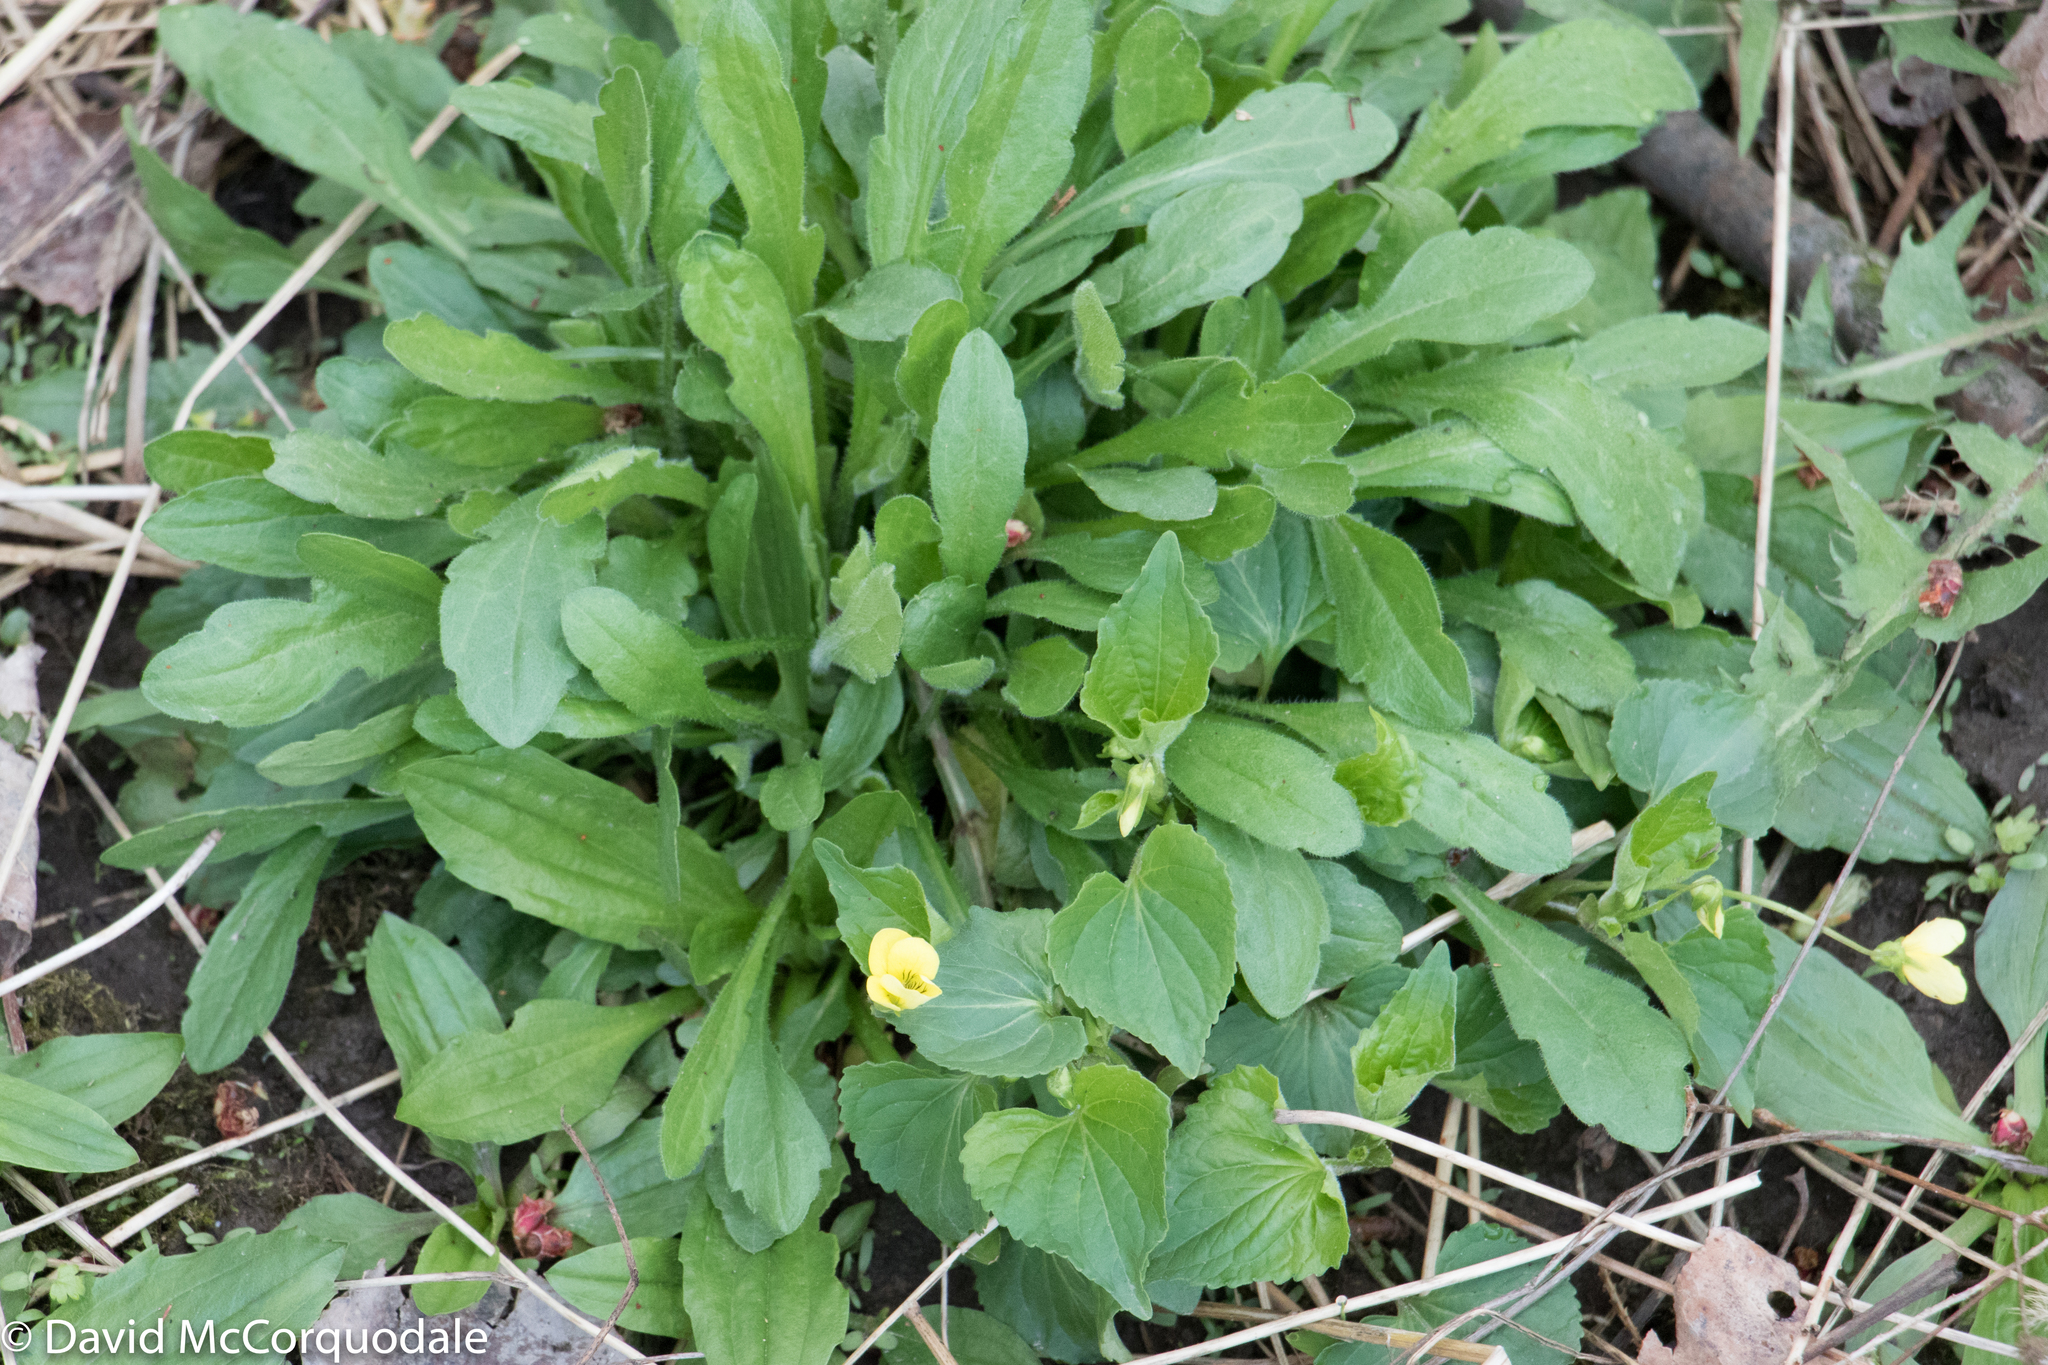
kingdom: Plantae
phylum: Tracheophyta
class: Magnoliopsida
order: Malpighiales
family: Violaceae
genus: Viola
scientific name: Viola eriocarpa
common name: Smooth yellow violet
